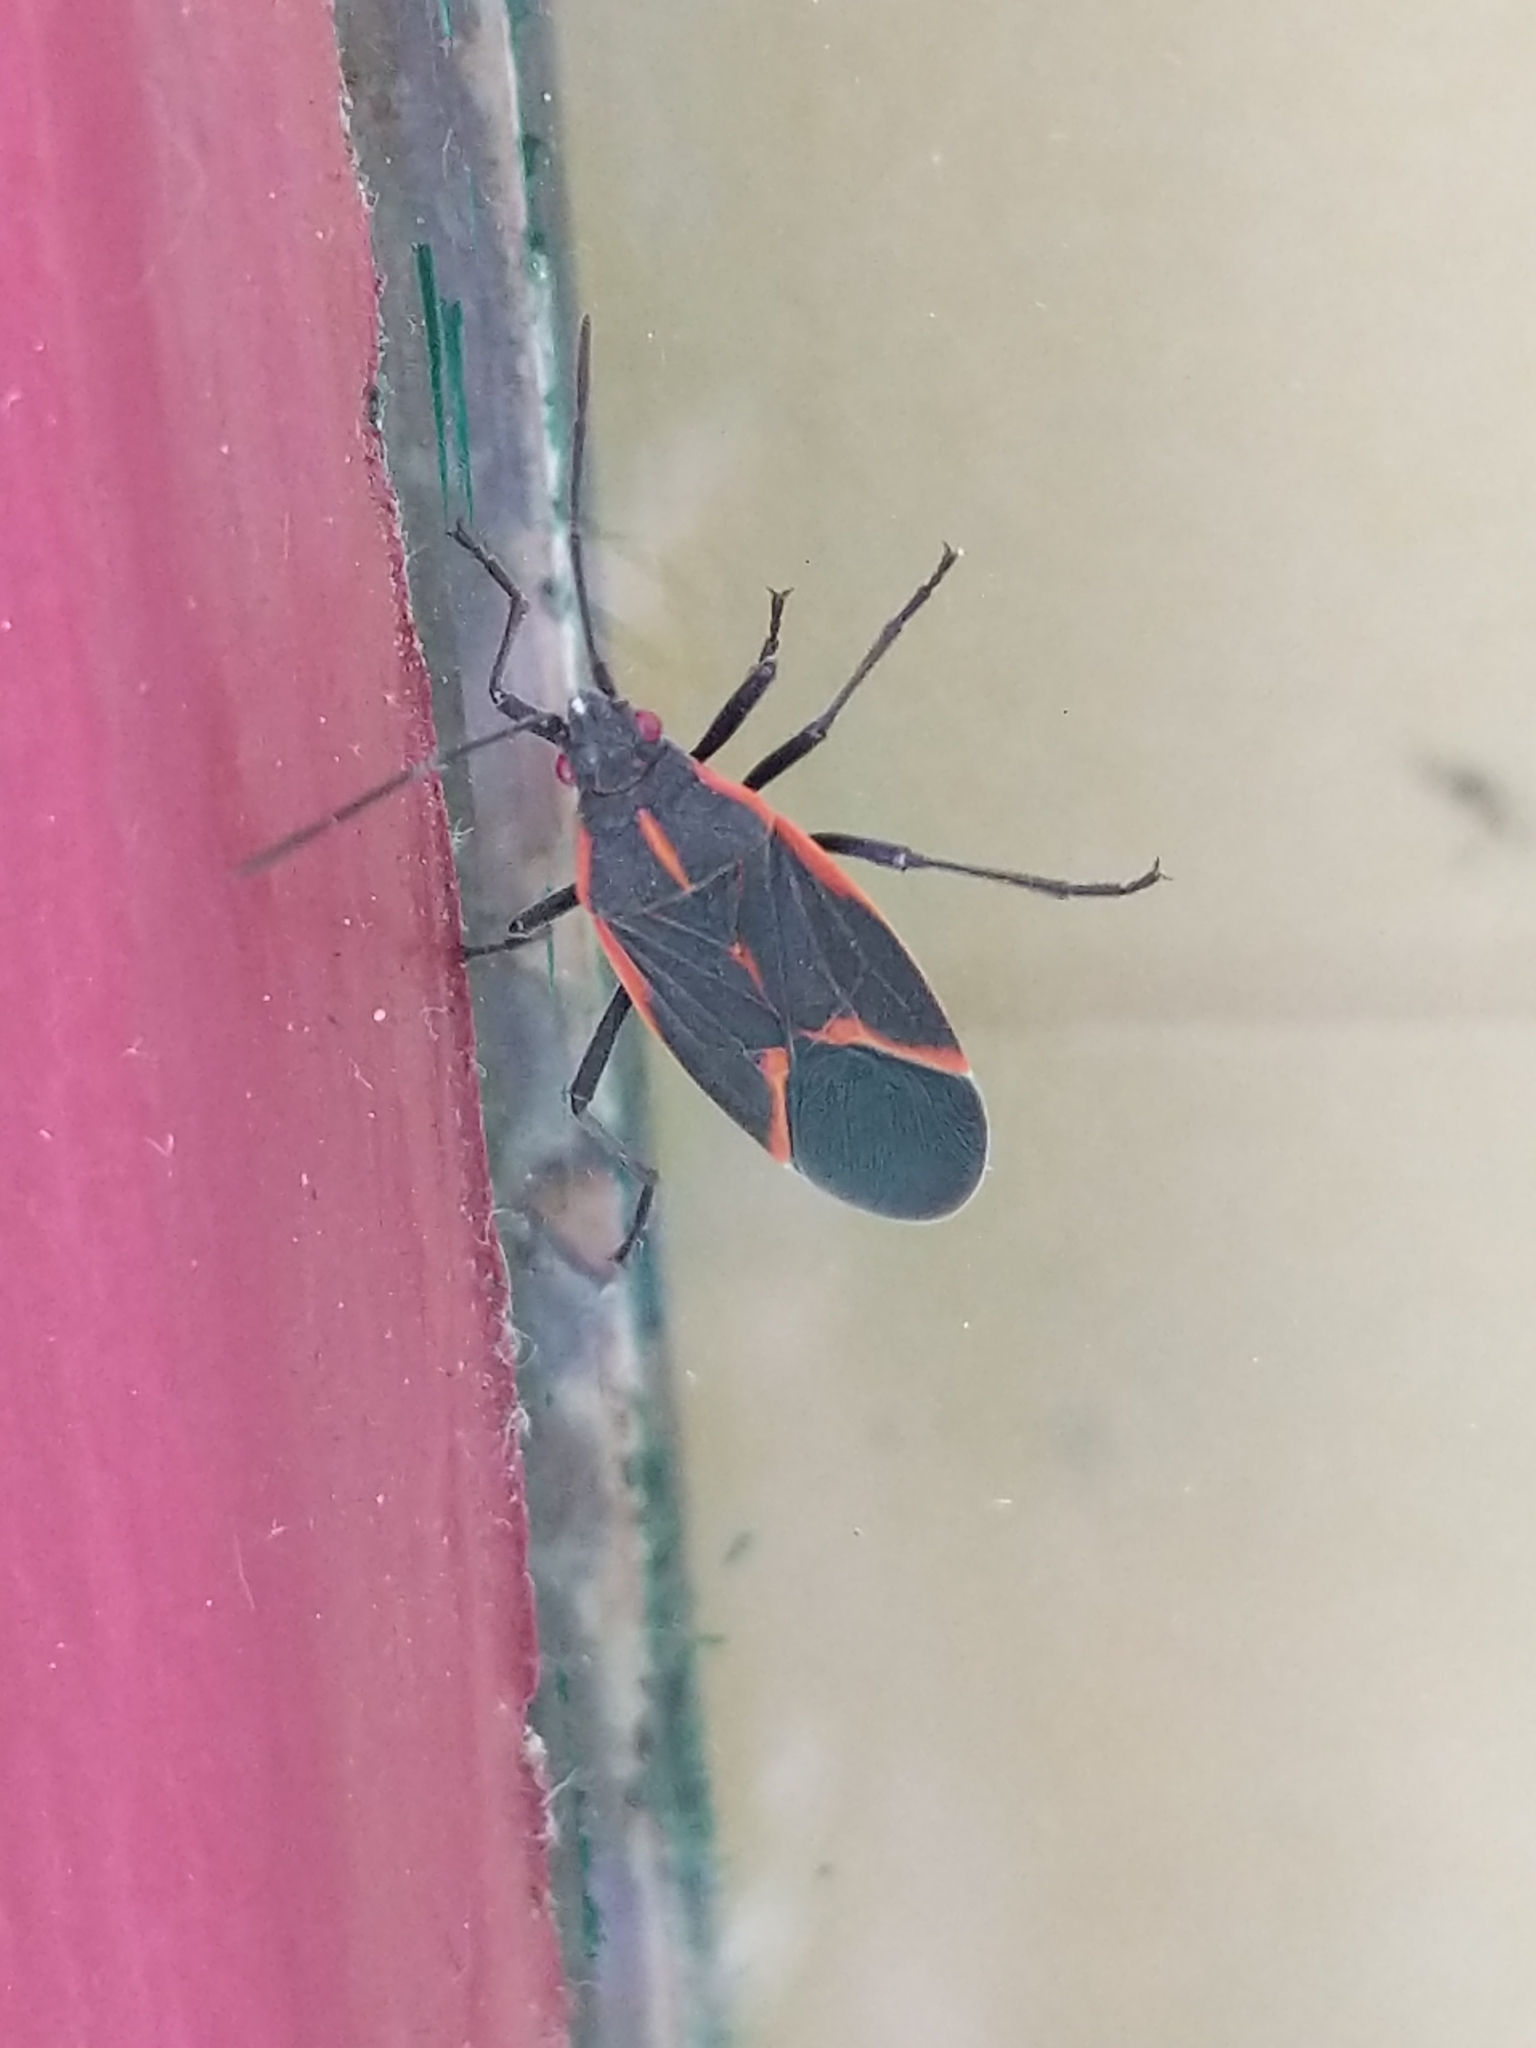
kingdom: Animalia
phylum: Arthropoda
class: Insecta
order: Hemiptera
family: Rhopalidae
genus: Boisea
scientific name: Boisea trivittata
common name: Boxelder bug
